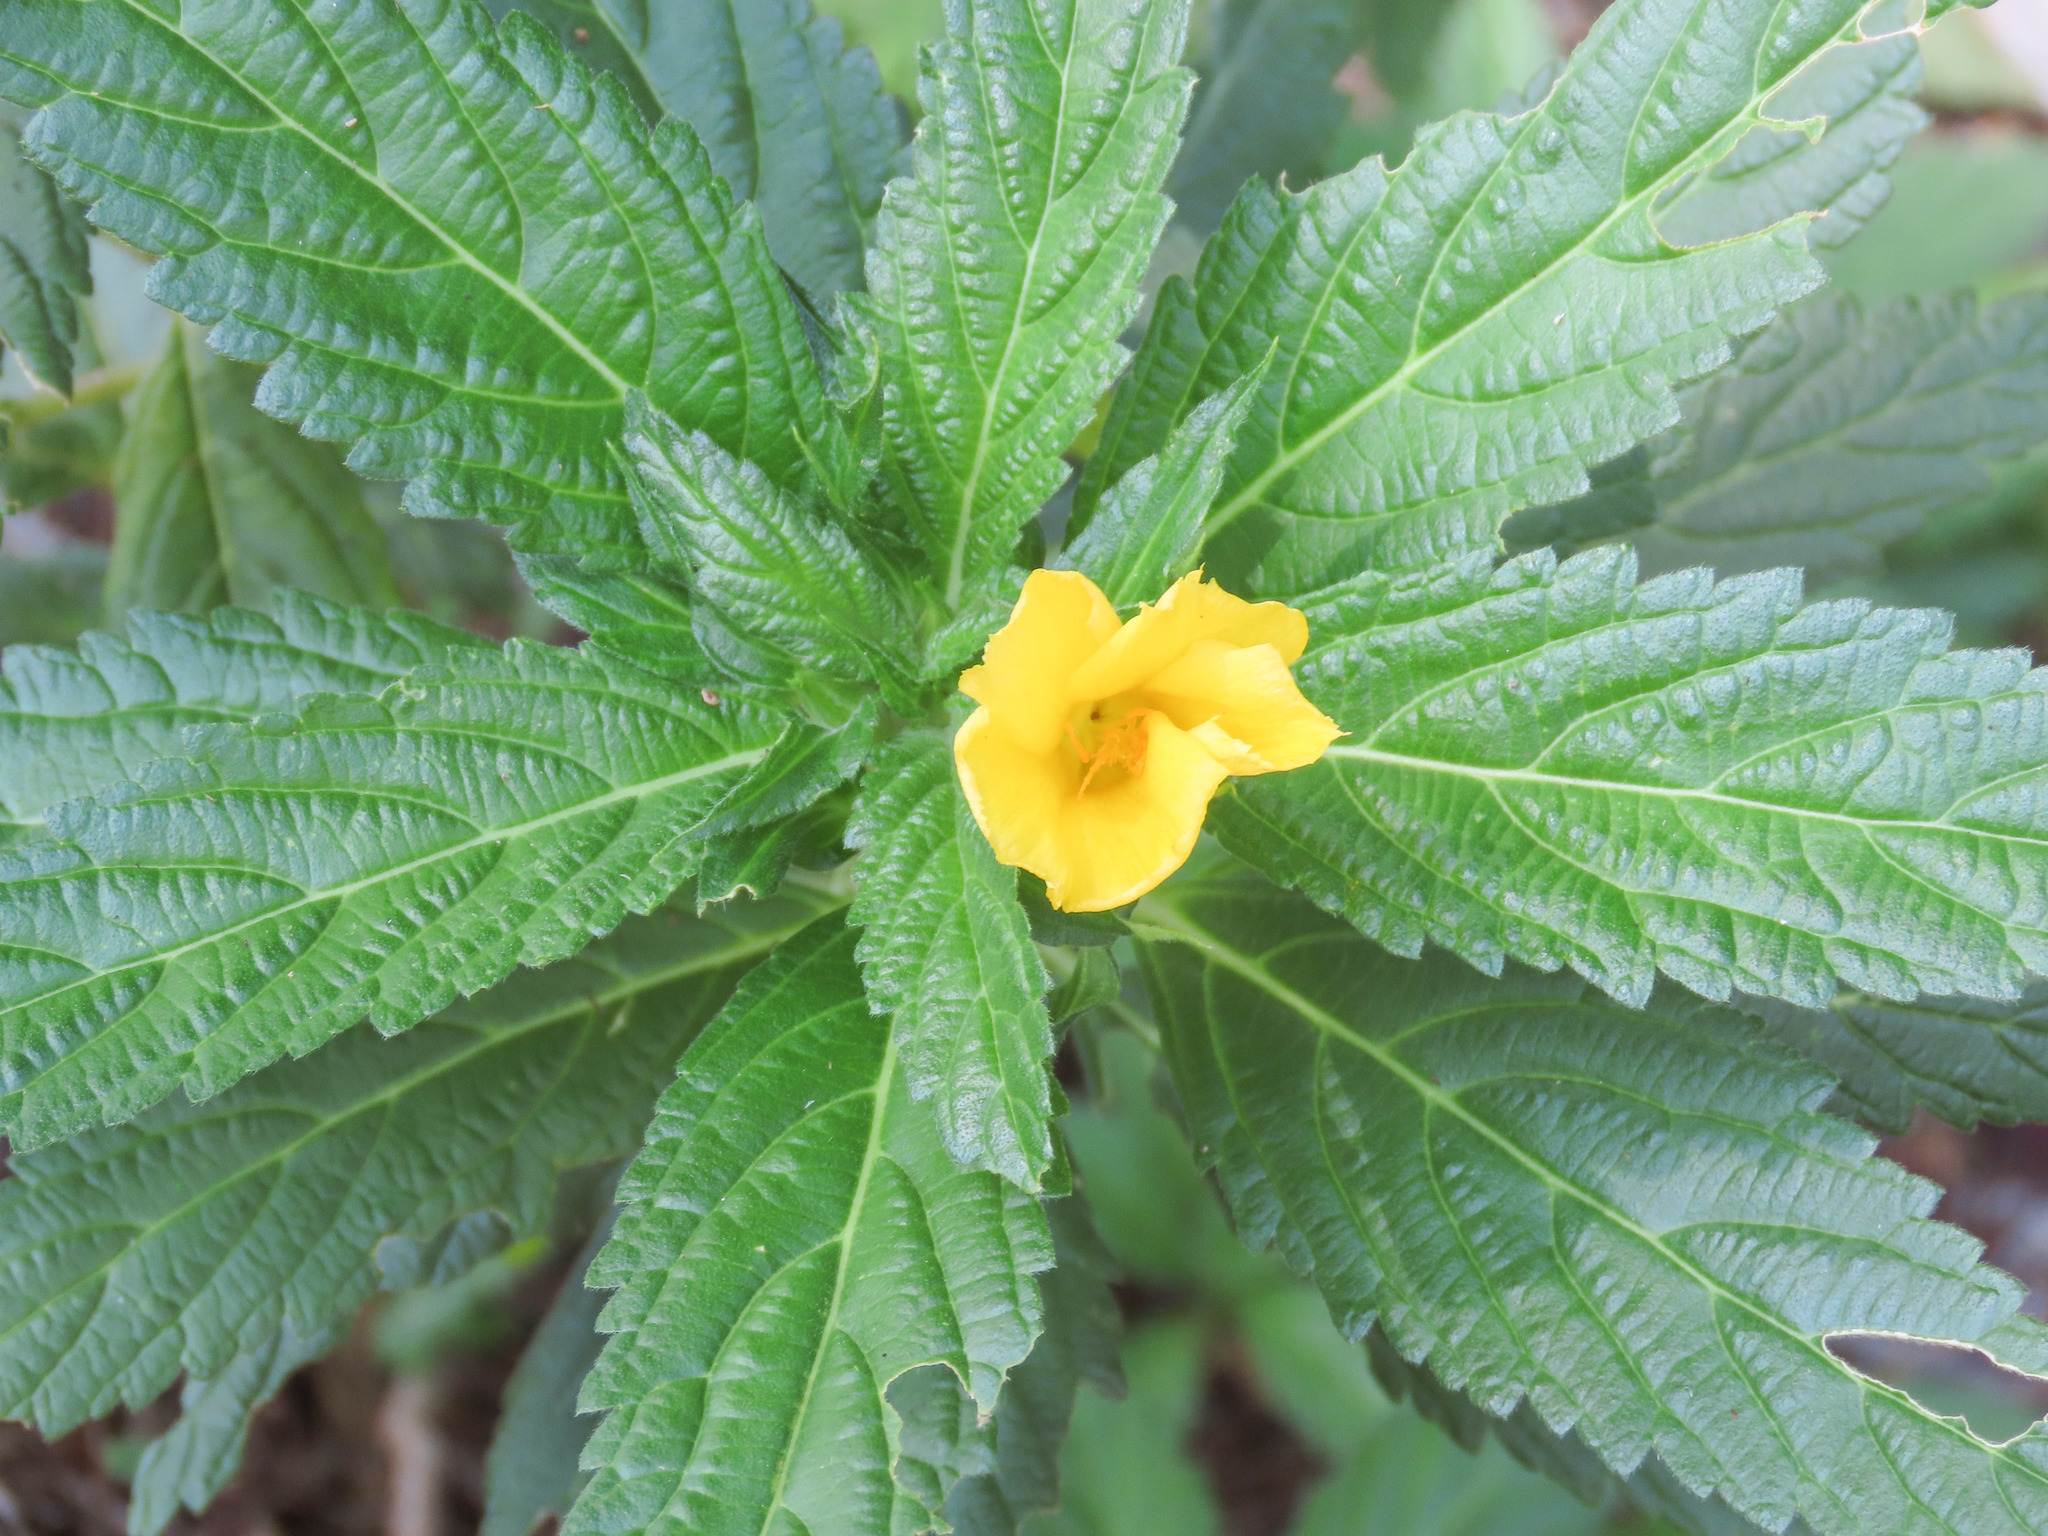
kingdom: Plantae
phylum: Tracheophyta
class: Magnoliopsida
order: Malpighiales
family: Turneraceae
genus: Turnera
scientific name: Turnera ulmifolia
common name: Ramgoat dashalong
